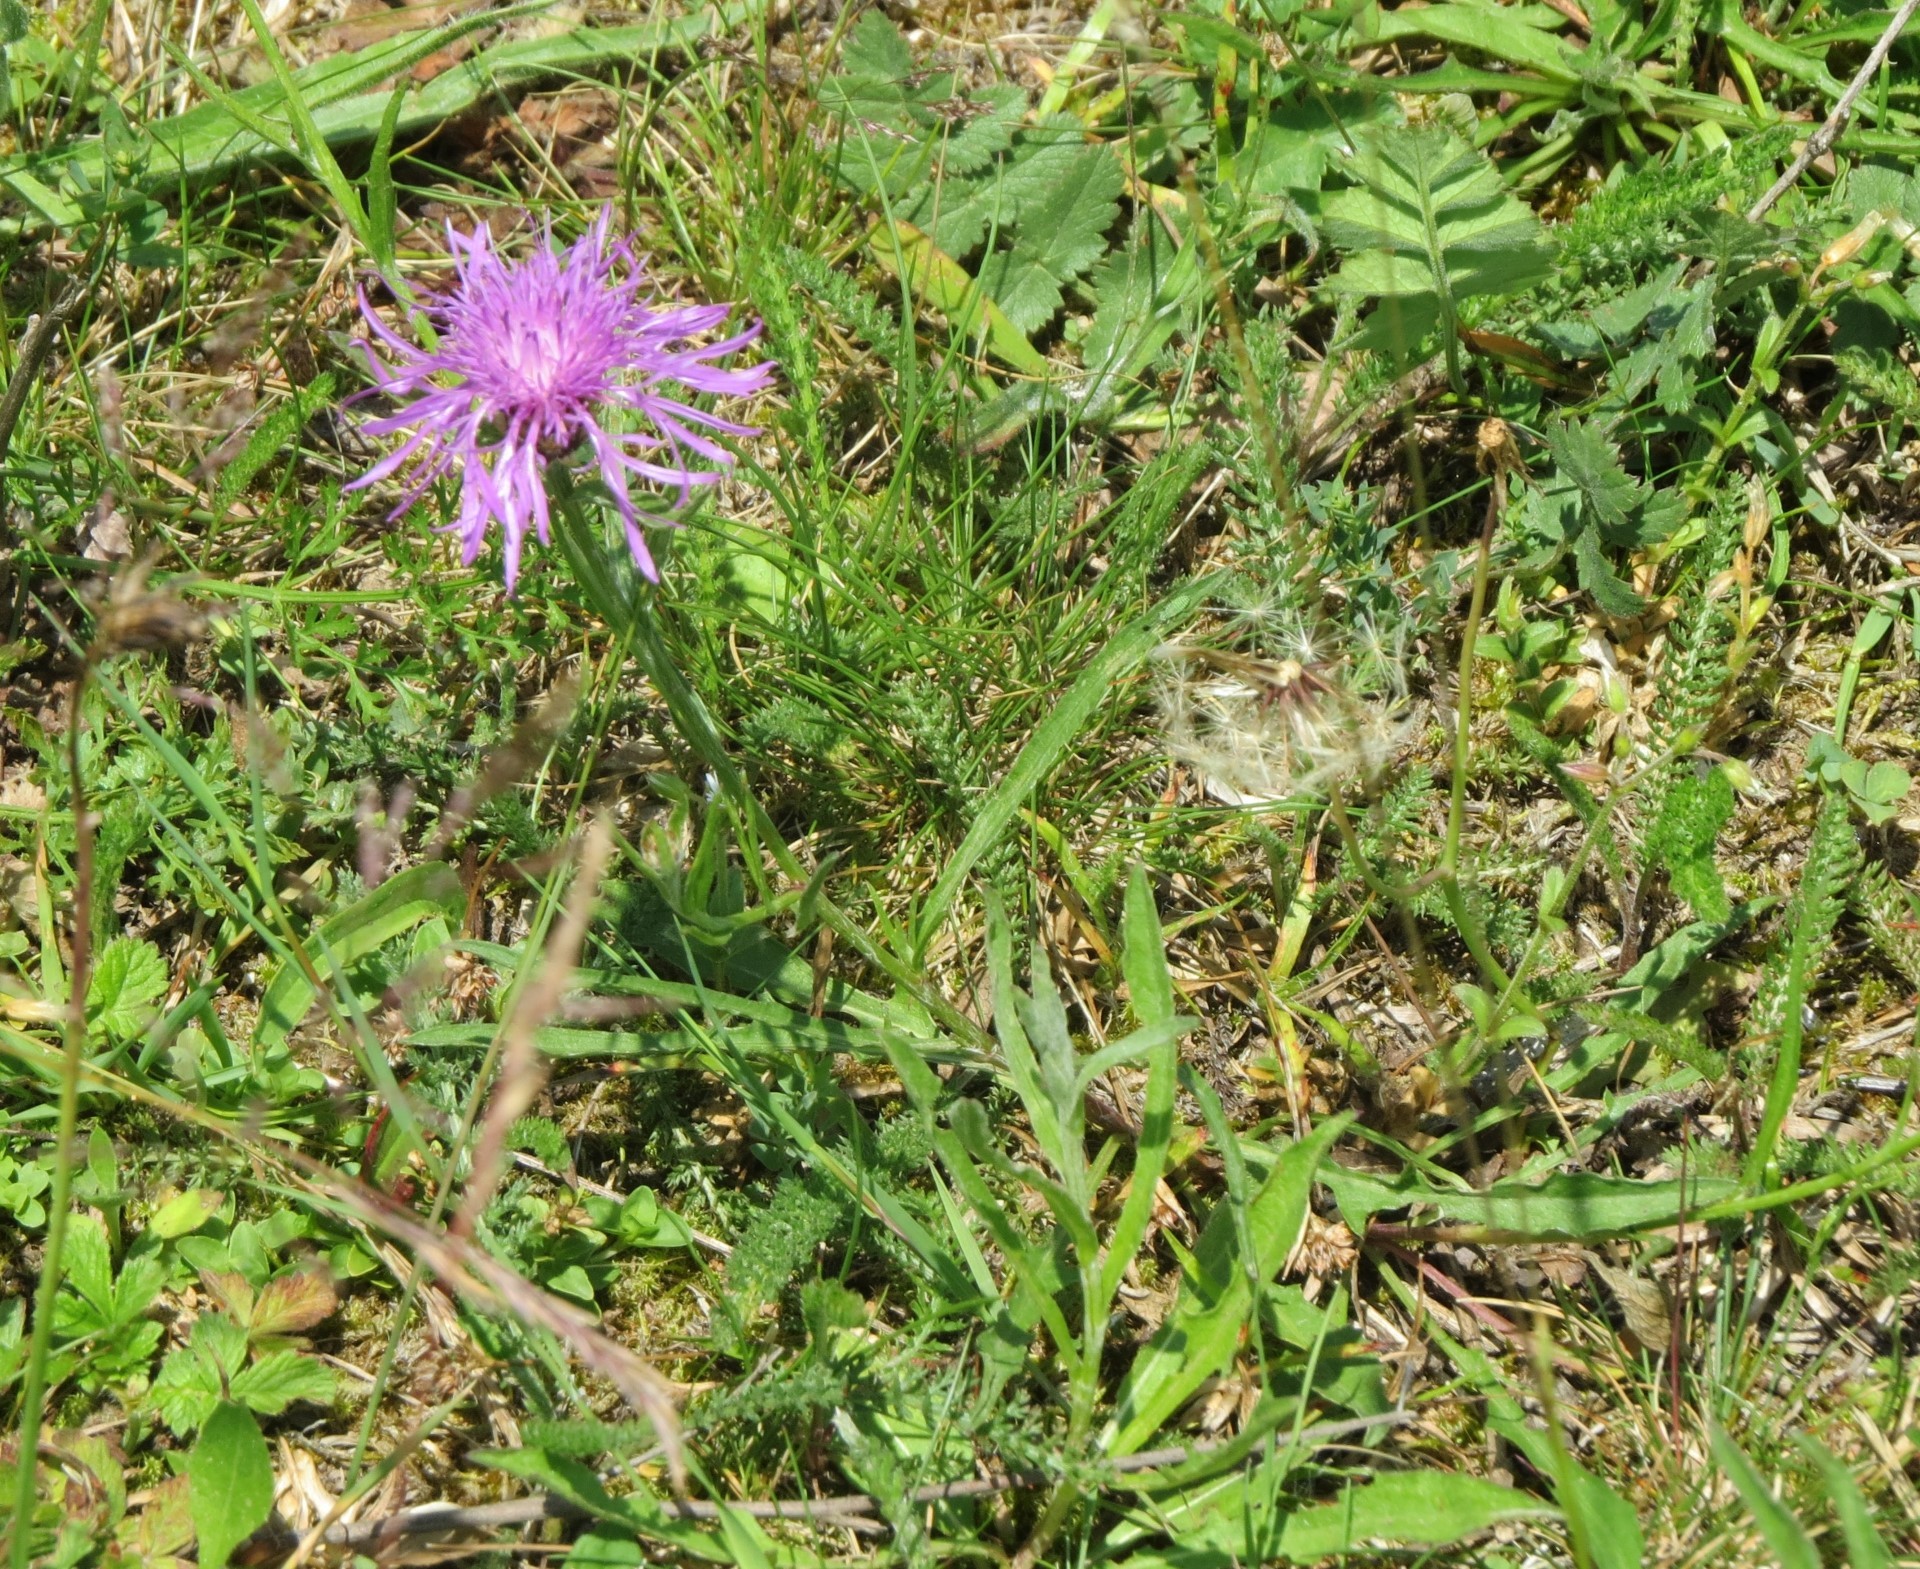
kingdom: Plantae
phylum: Tracheophyta
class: Magnoliopsida
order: Asterales
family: Asteraceae
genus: Centaurea
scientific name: Centaurea jacea
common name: Brown knapweed
